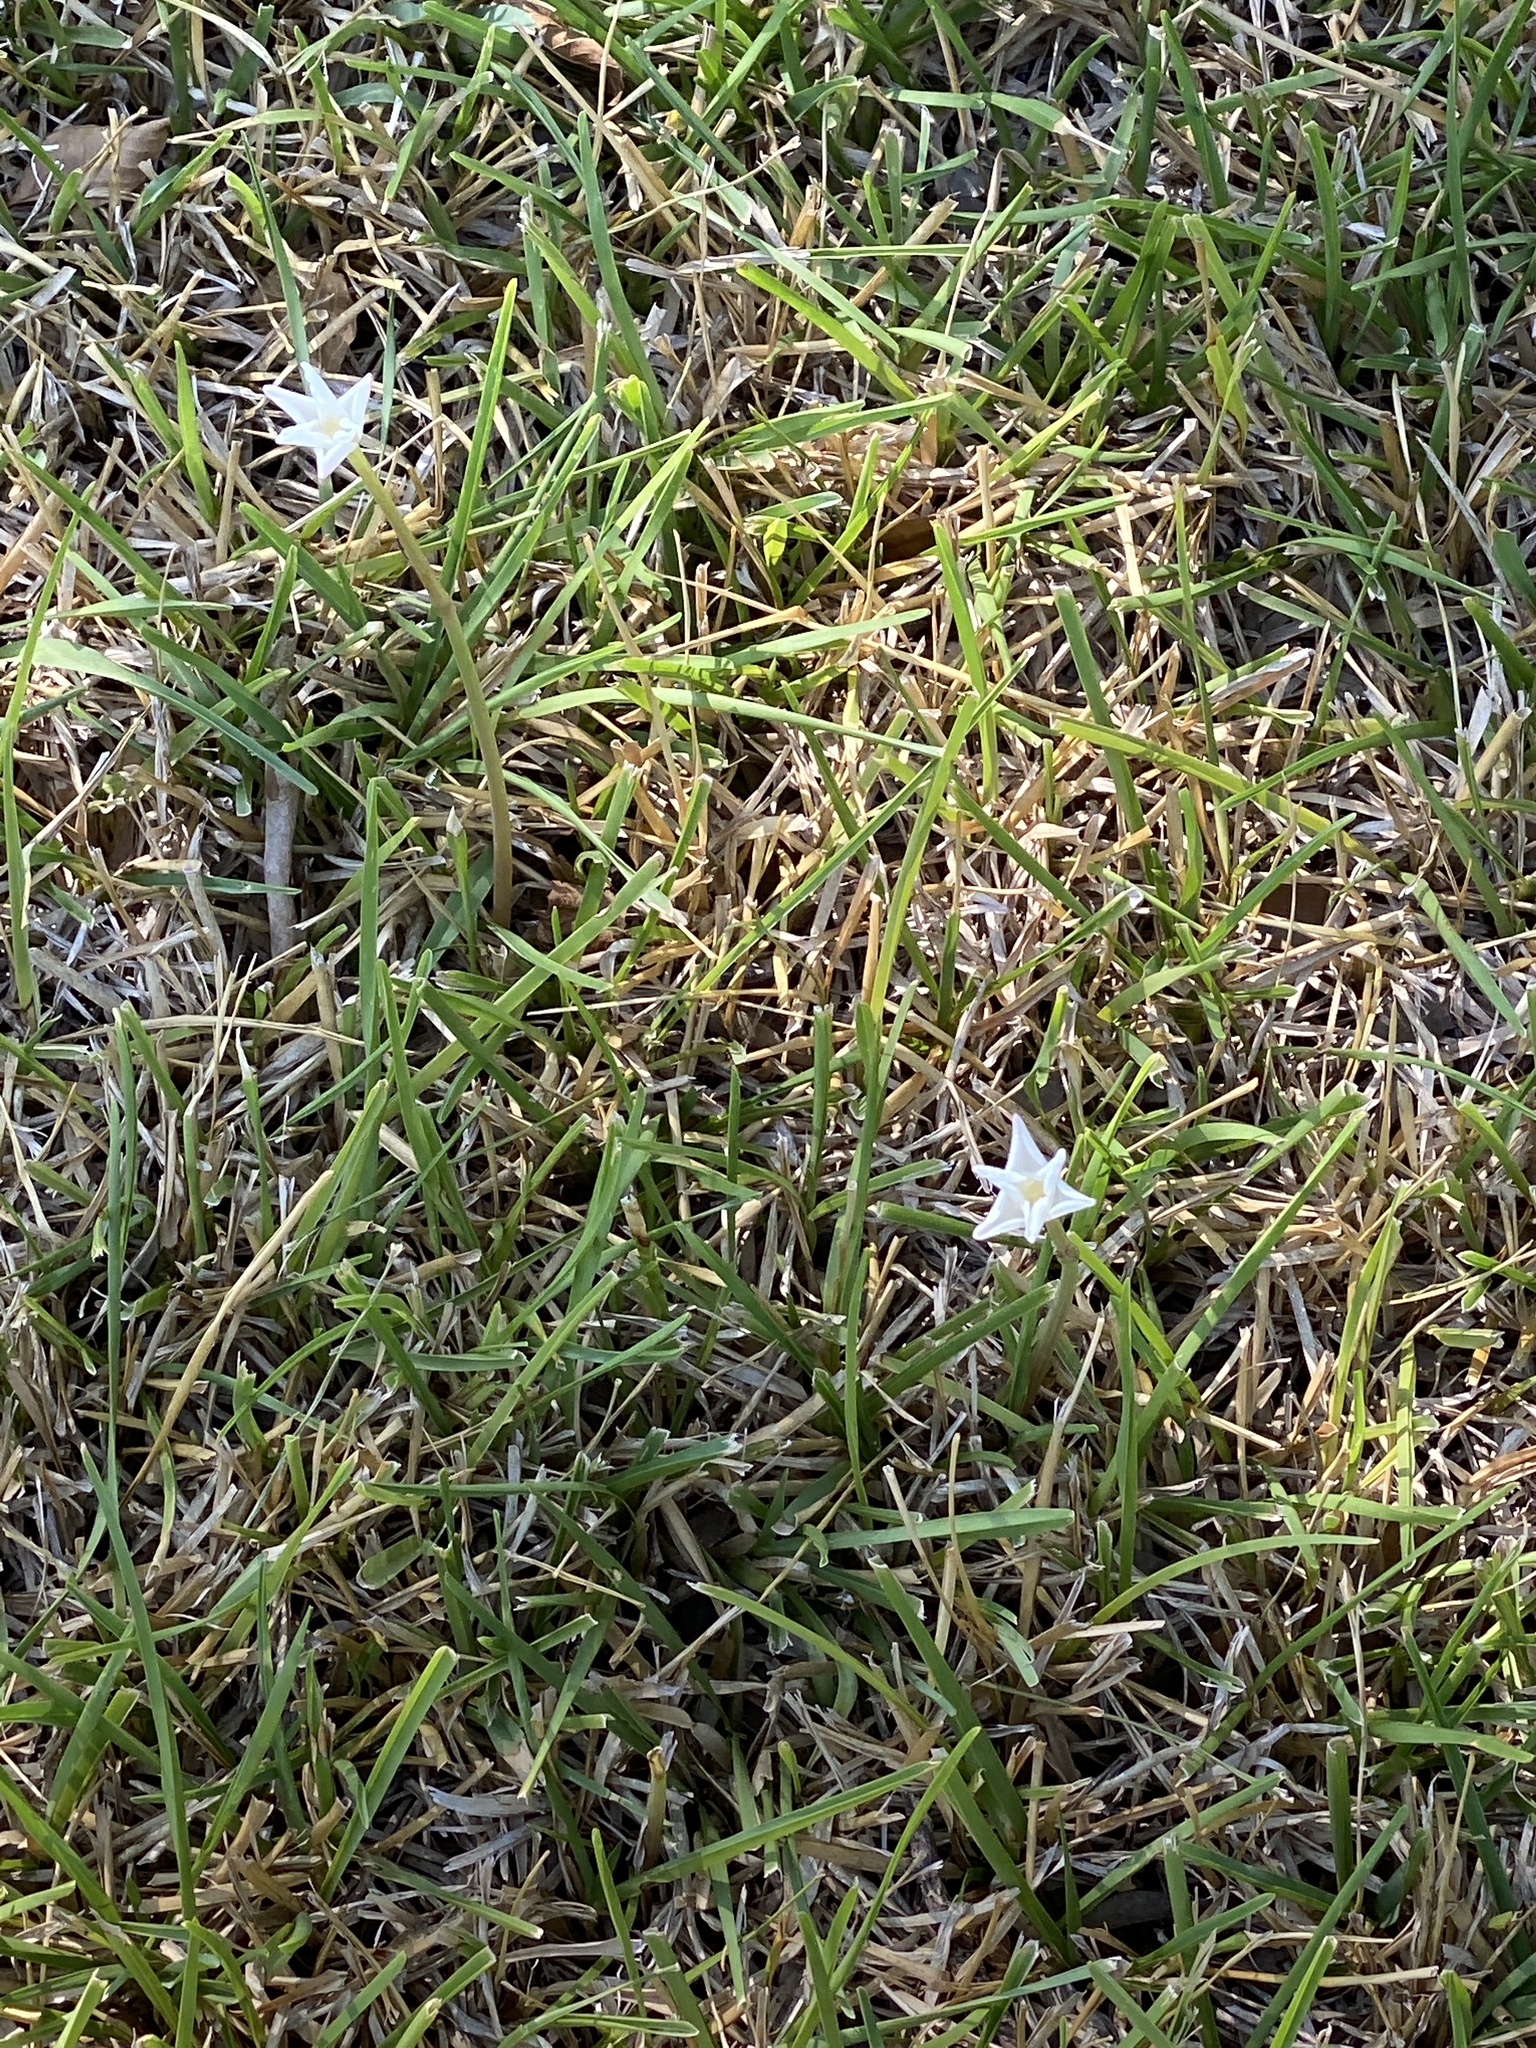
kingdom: Plantae
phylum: Tracheophyta
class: Liliopsida
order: Asparagales
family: Amaryllidaceae
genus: Zephyranthes
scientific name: Zephyranthes chlorosolen
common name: Evening rain-lily
